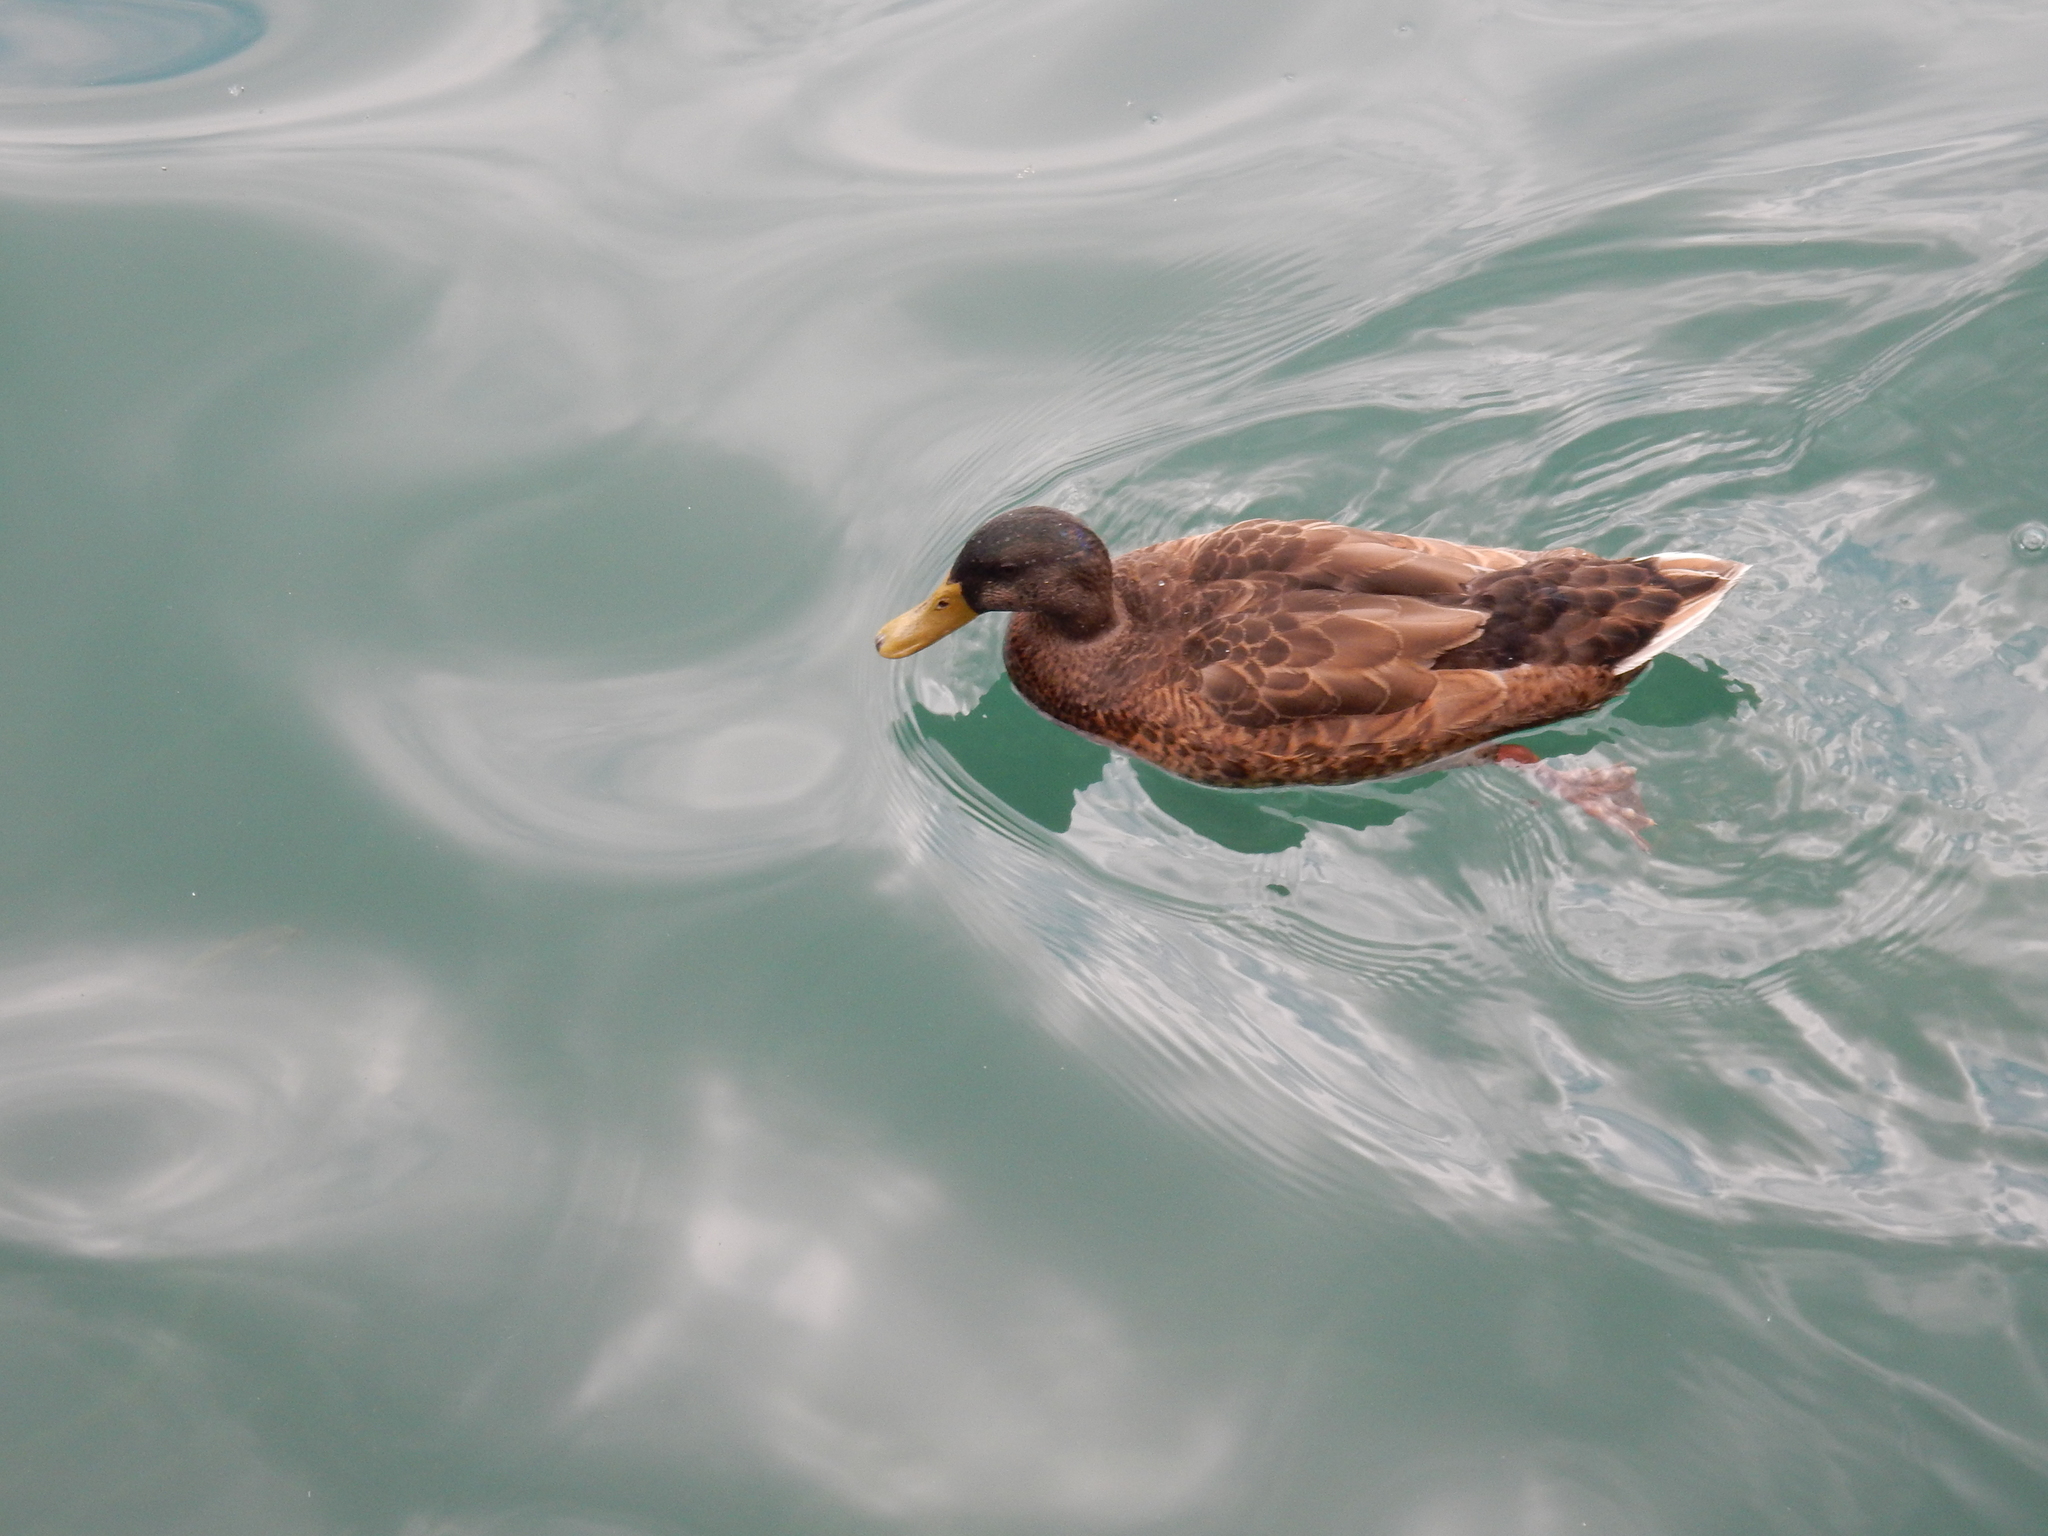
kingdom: Animalia
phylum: Chordata
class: Aves
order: Anseriformes
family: Anatidae
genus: Anas
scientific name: Anas platyrhynchos
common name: Mallard
